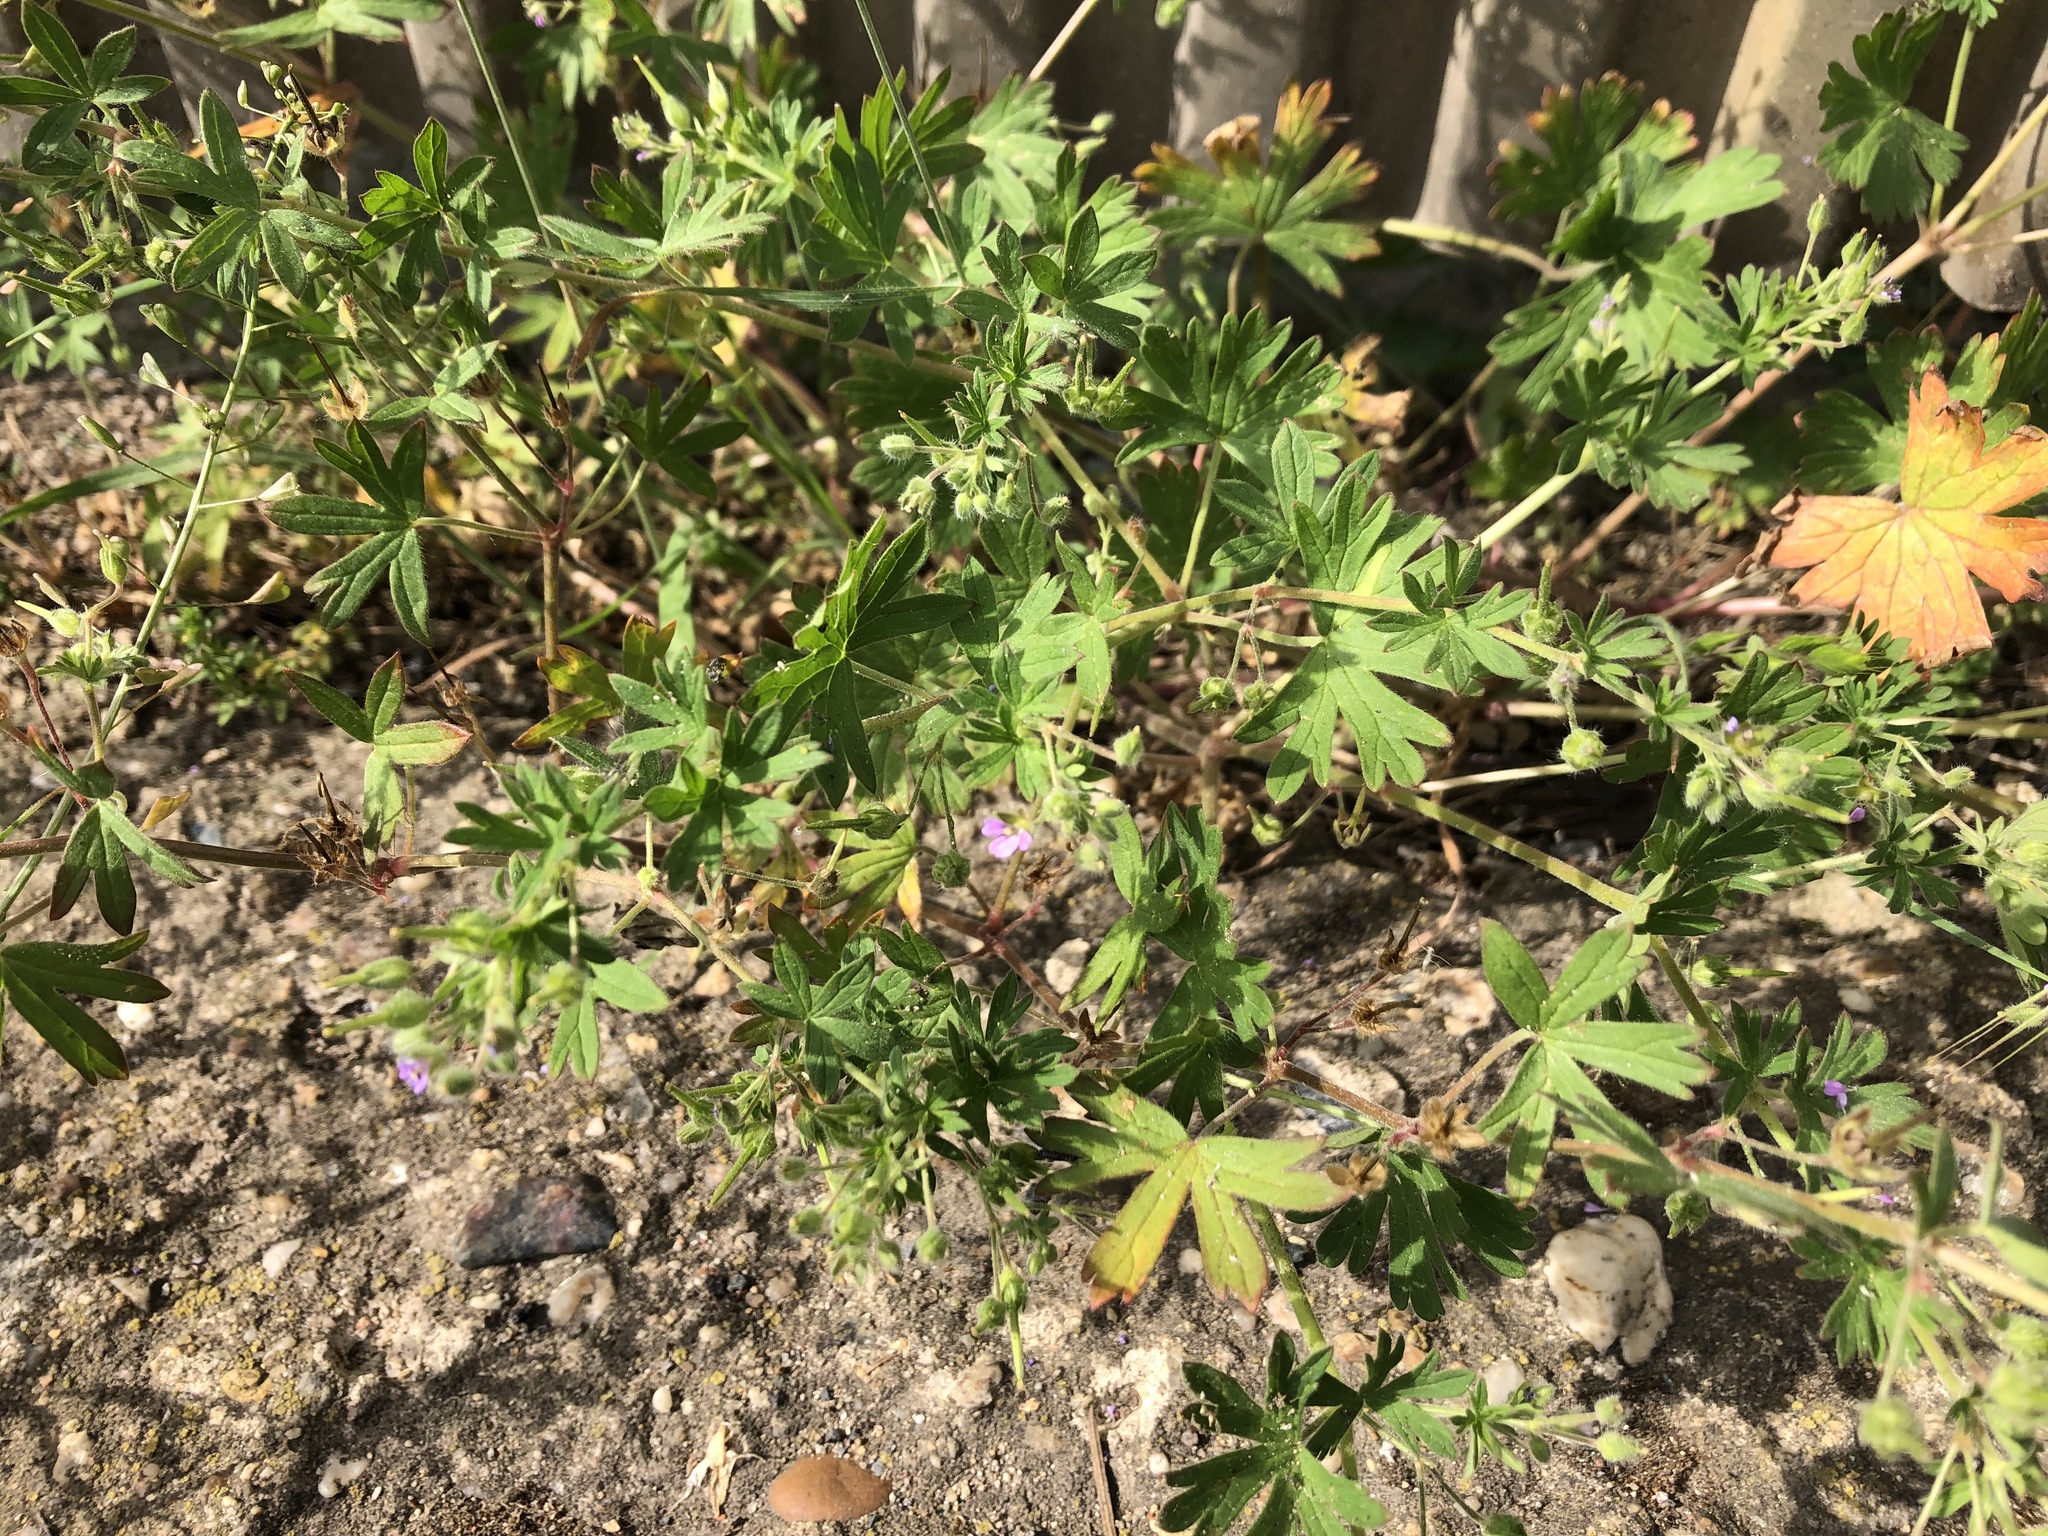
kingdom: Plantae
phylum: Tracheophyta
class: Magnoliopsida
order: Geraniales
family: Geraniaceae
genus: Geranium
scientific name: Geranium pusillum
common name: Small geranium
